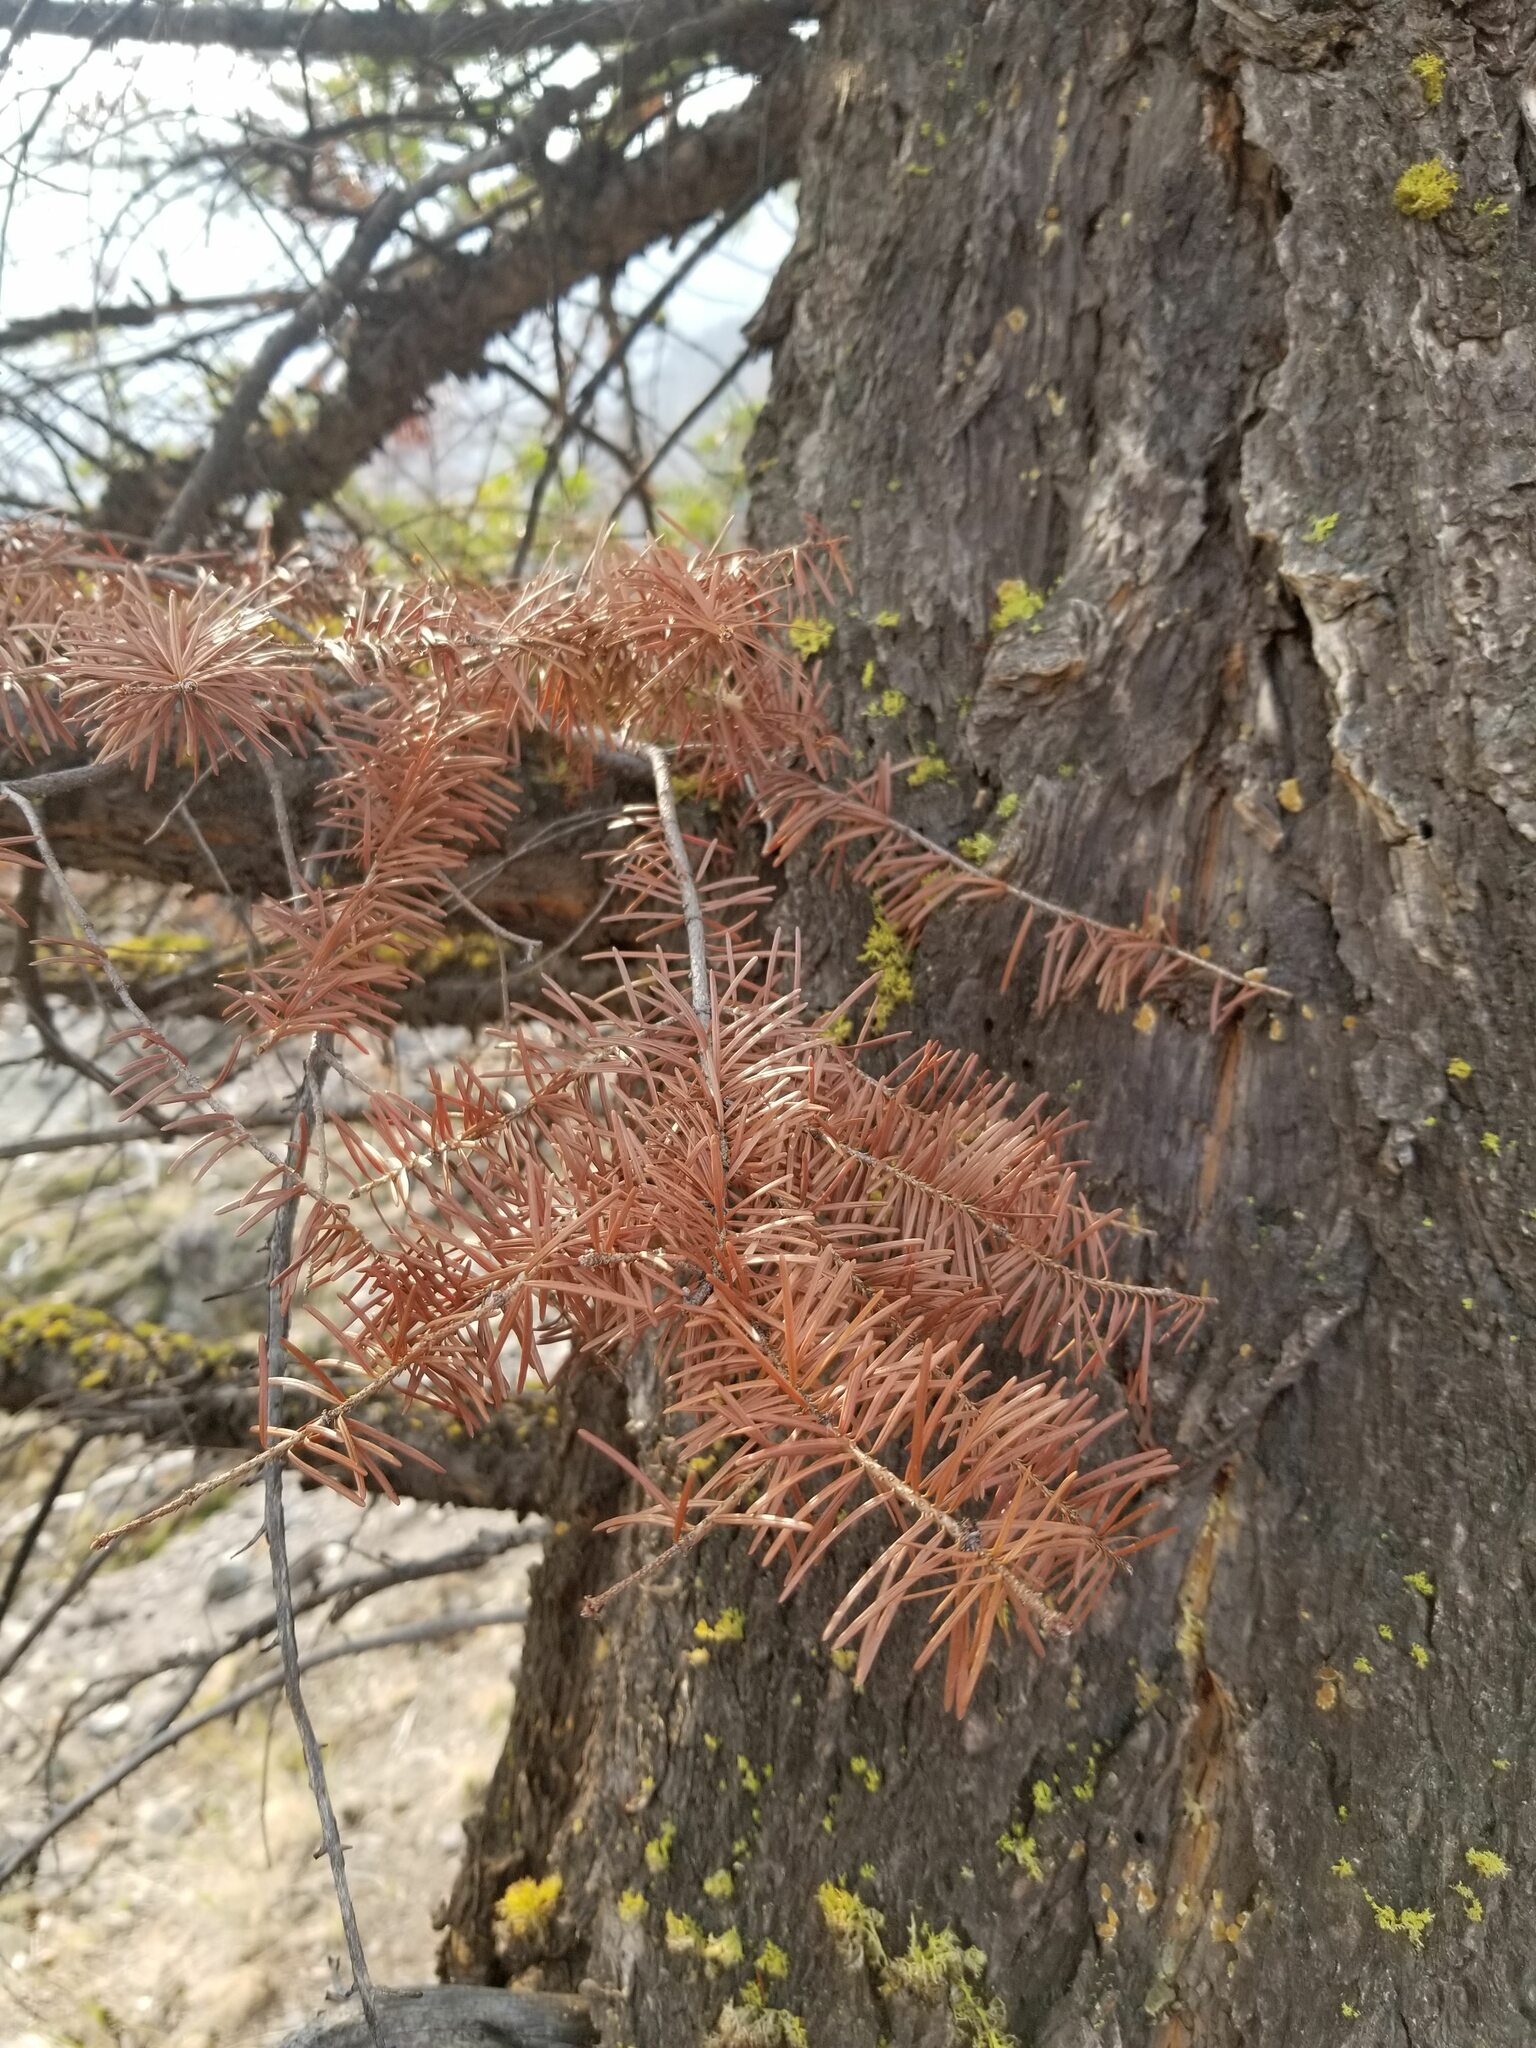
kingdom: Plantae
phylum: Tracheophyta
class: Pinopsida
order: Pinales
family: Pinaceae
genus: Pseudotsuga
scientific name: Pseudotsuga menziesii
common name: Douglas fir
